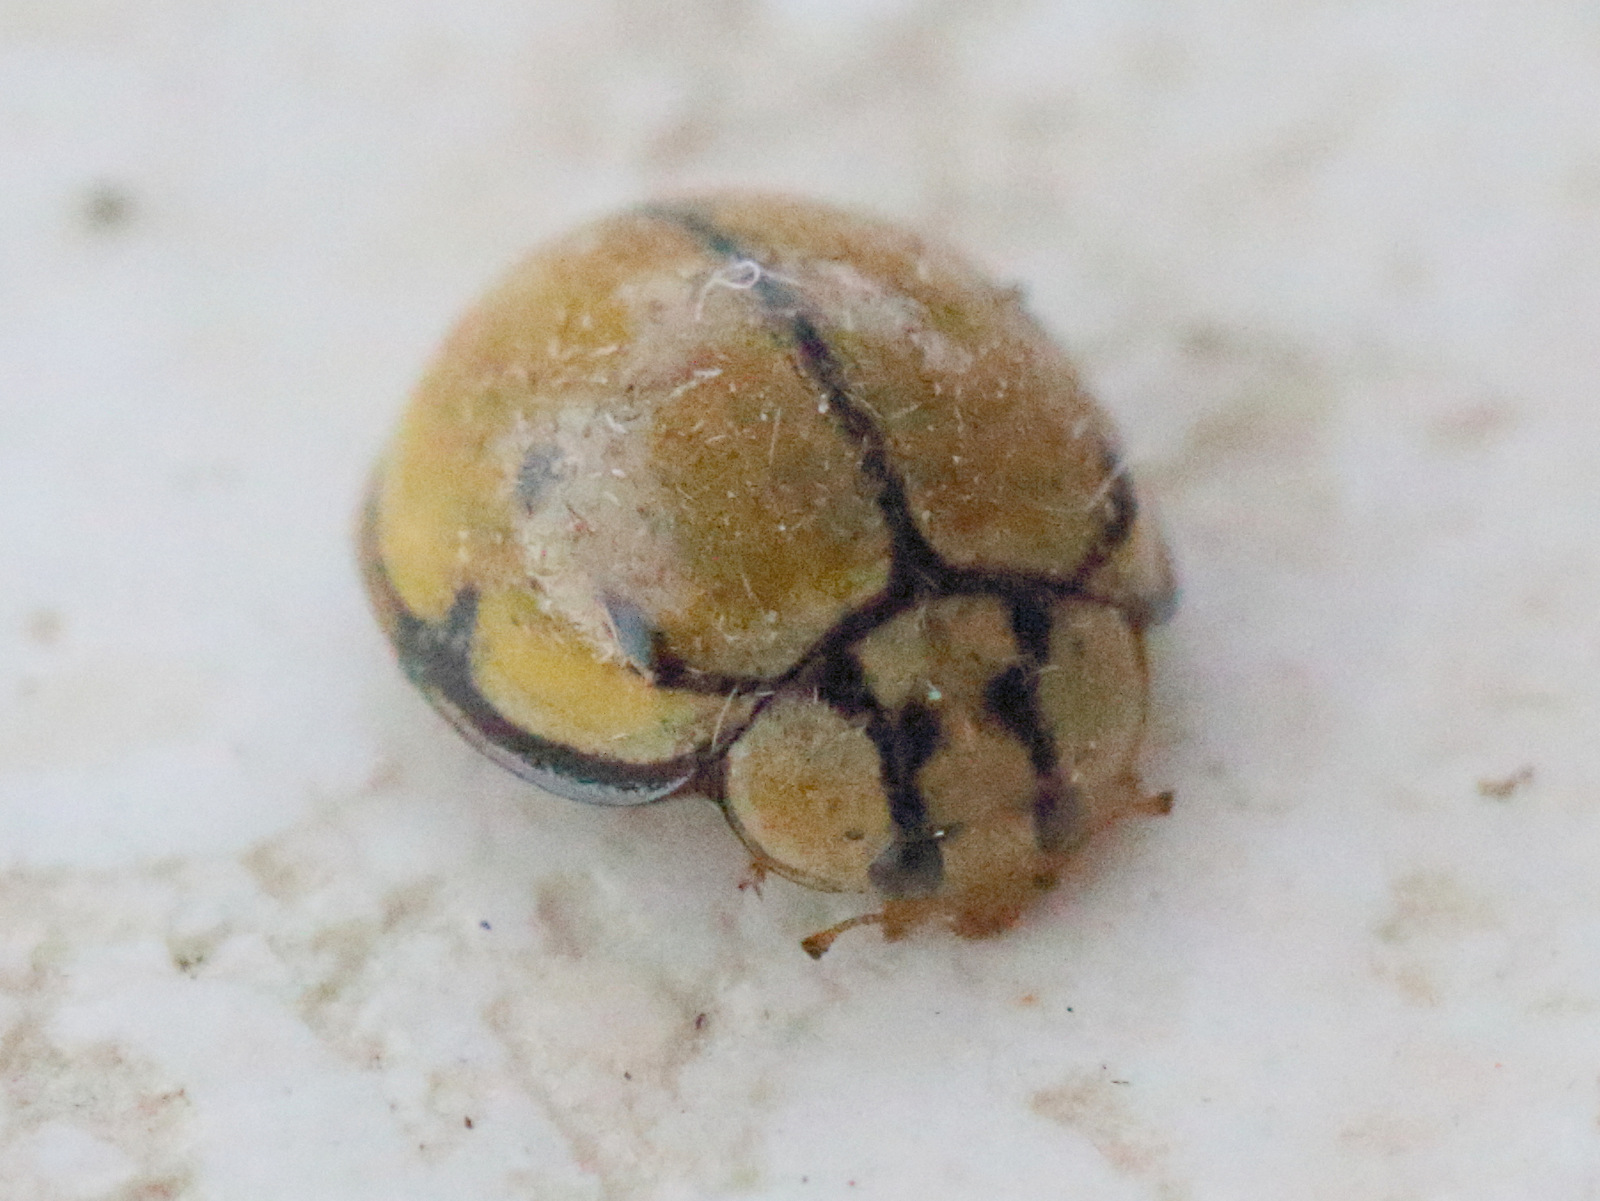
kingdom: Animalia
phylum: Arthropoda
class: Insecta
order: Coleoptera
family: Coccinellidae
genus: Harmonia
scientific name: Harmonia
